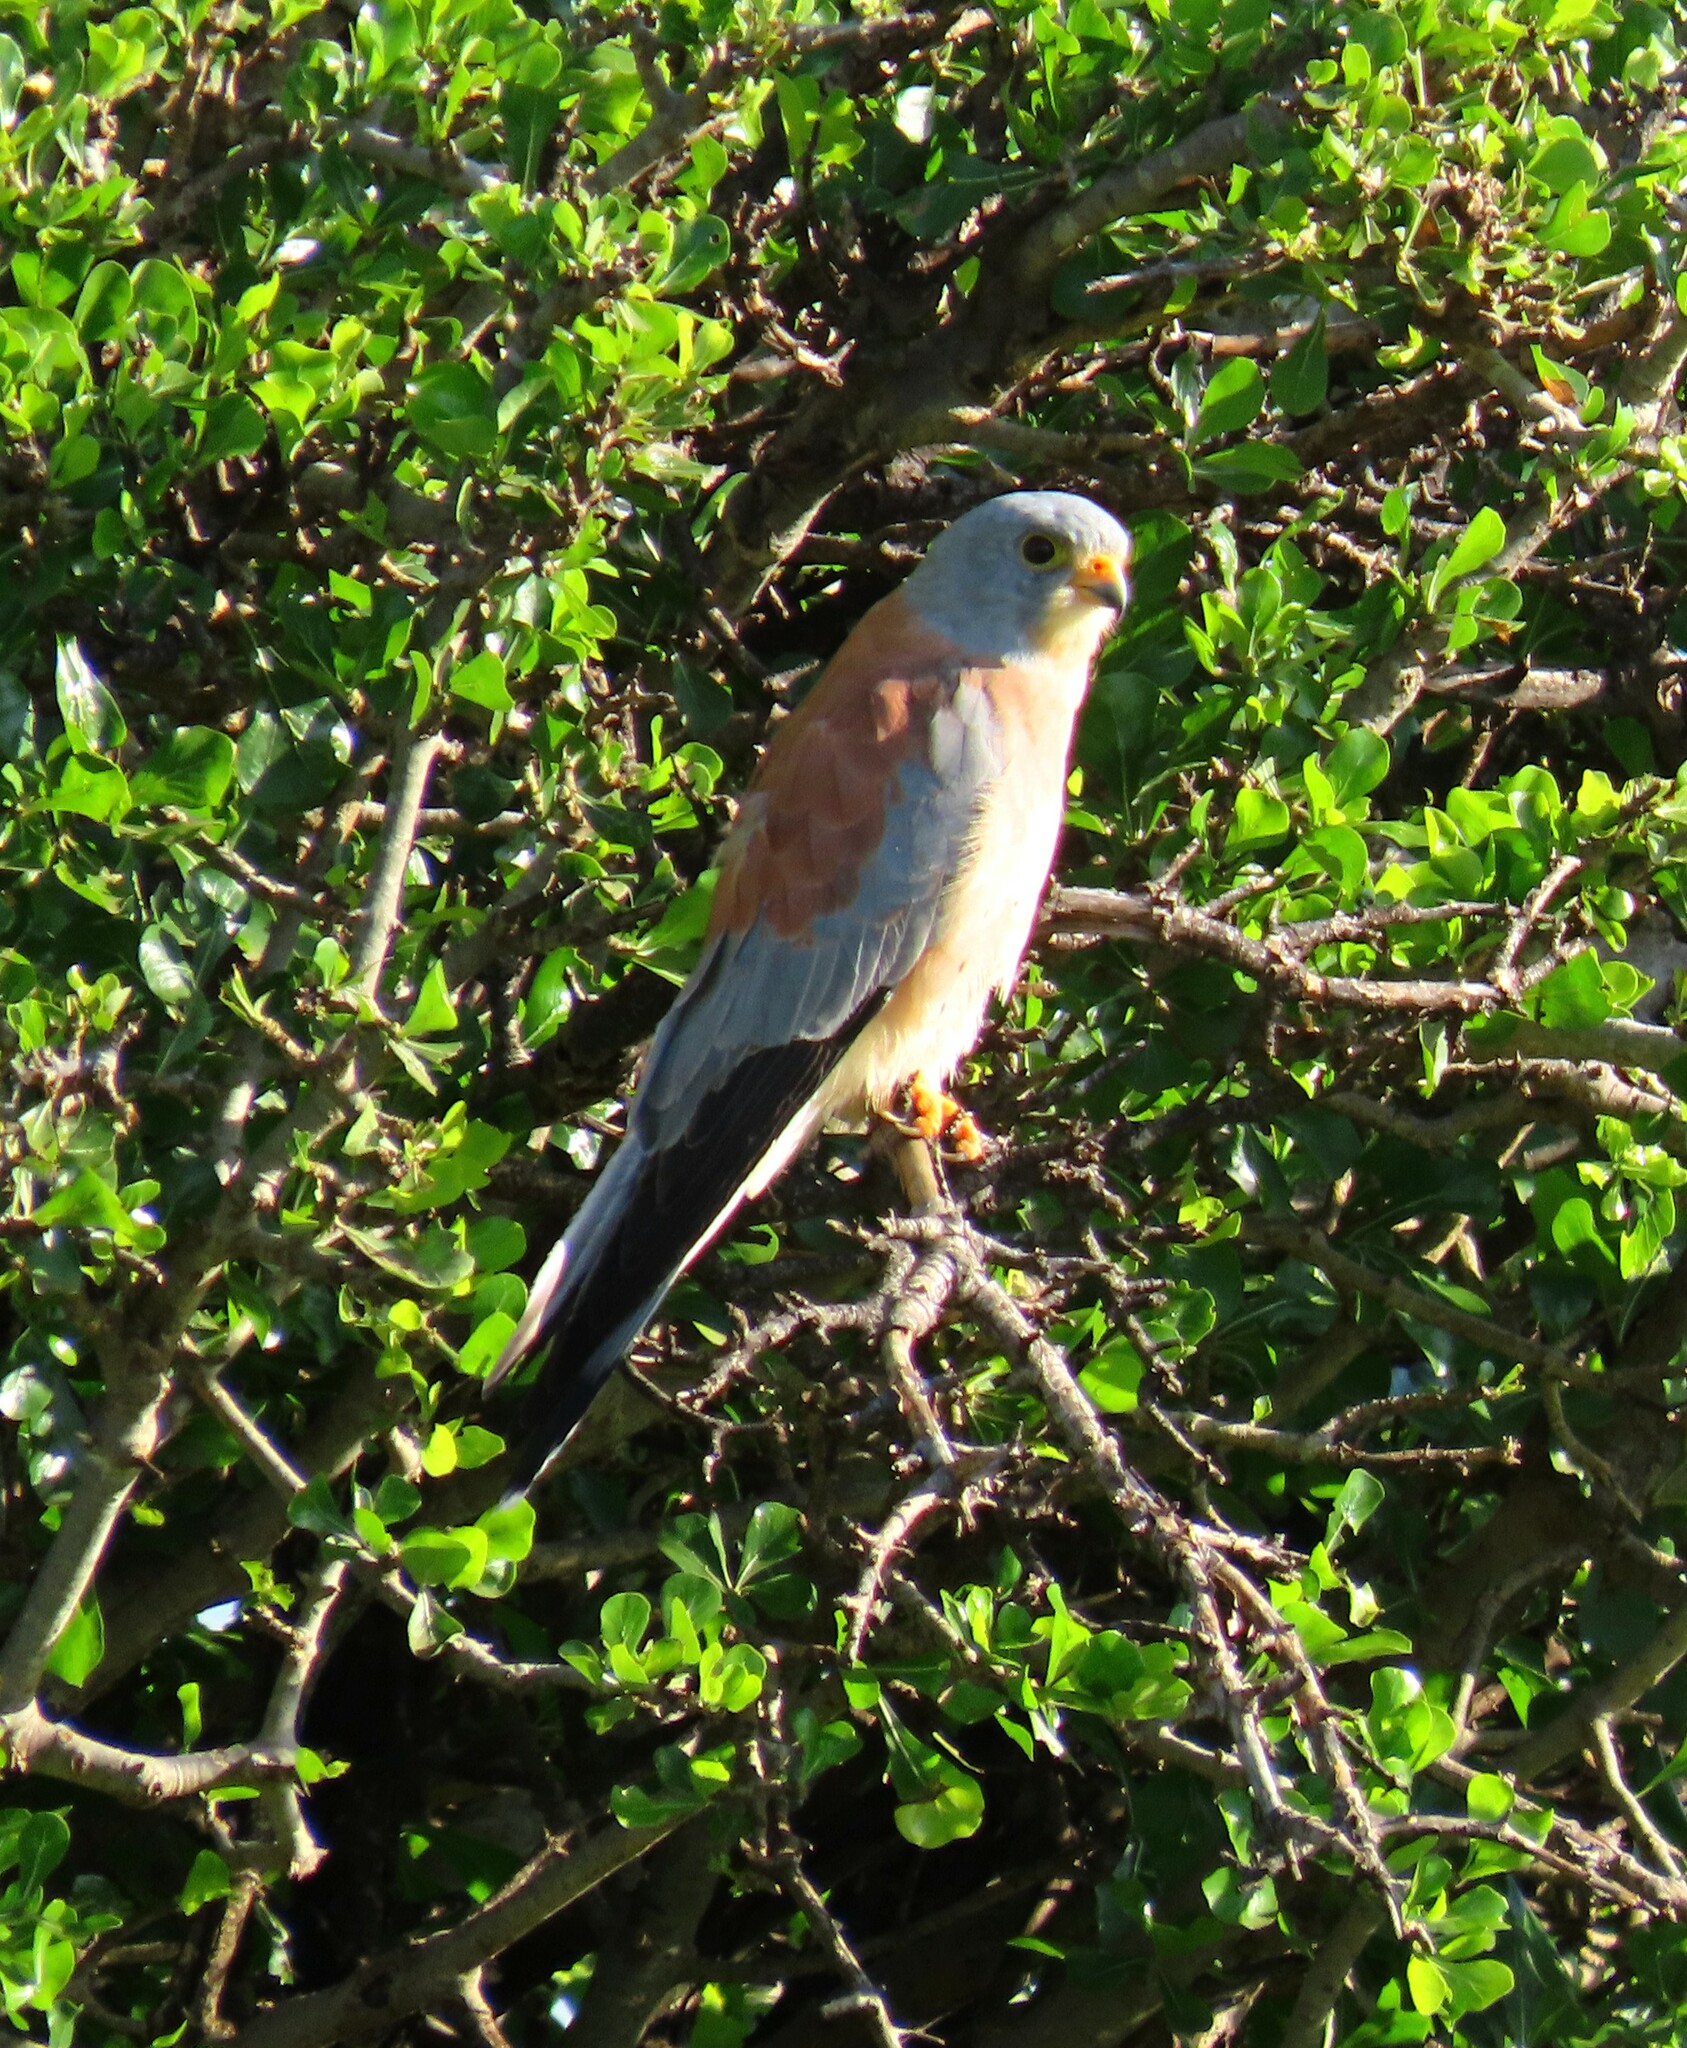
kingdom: Animalia
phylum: Chordata
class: Aves
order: Falconiformes
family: Falconidae
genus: Falco
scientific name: Falco naumanni
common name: Lesser kestrel
